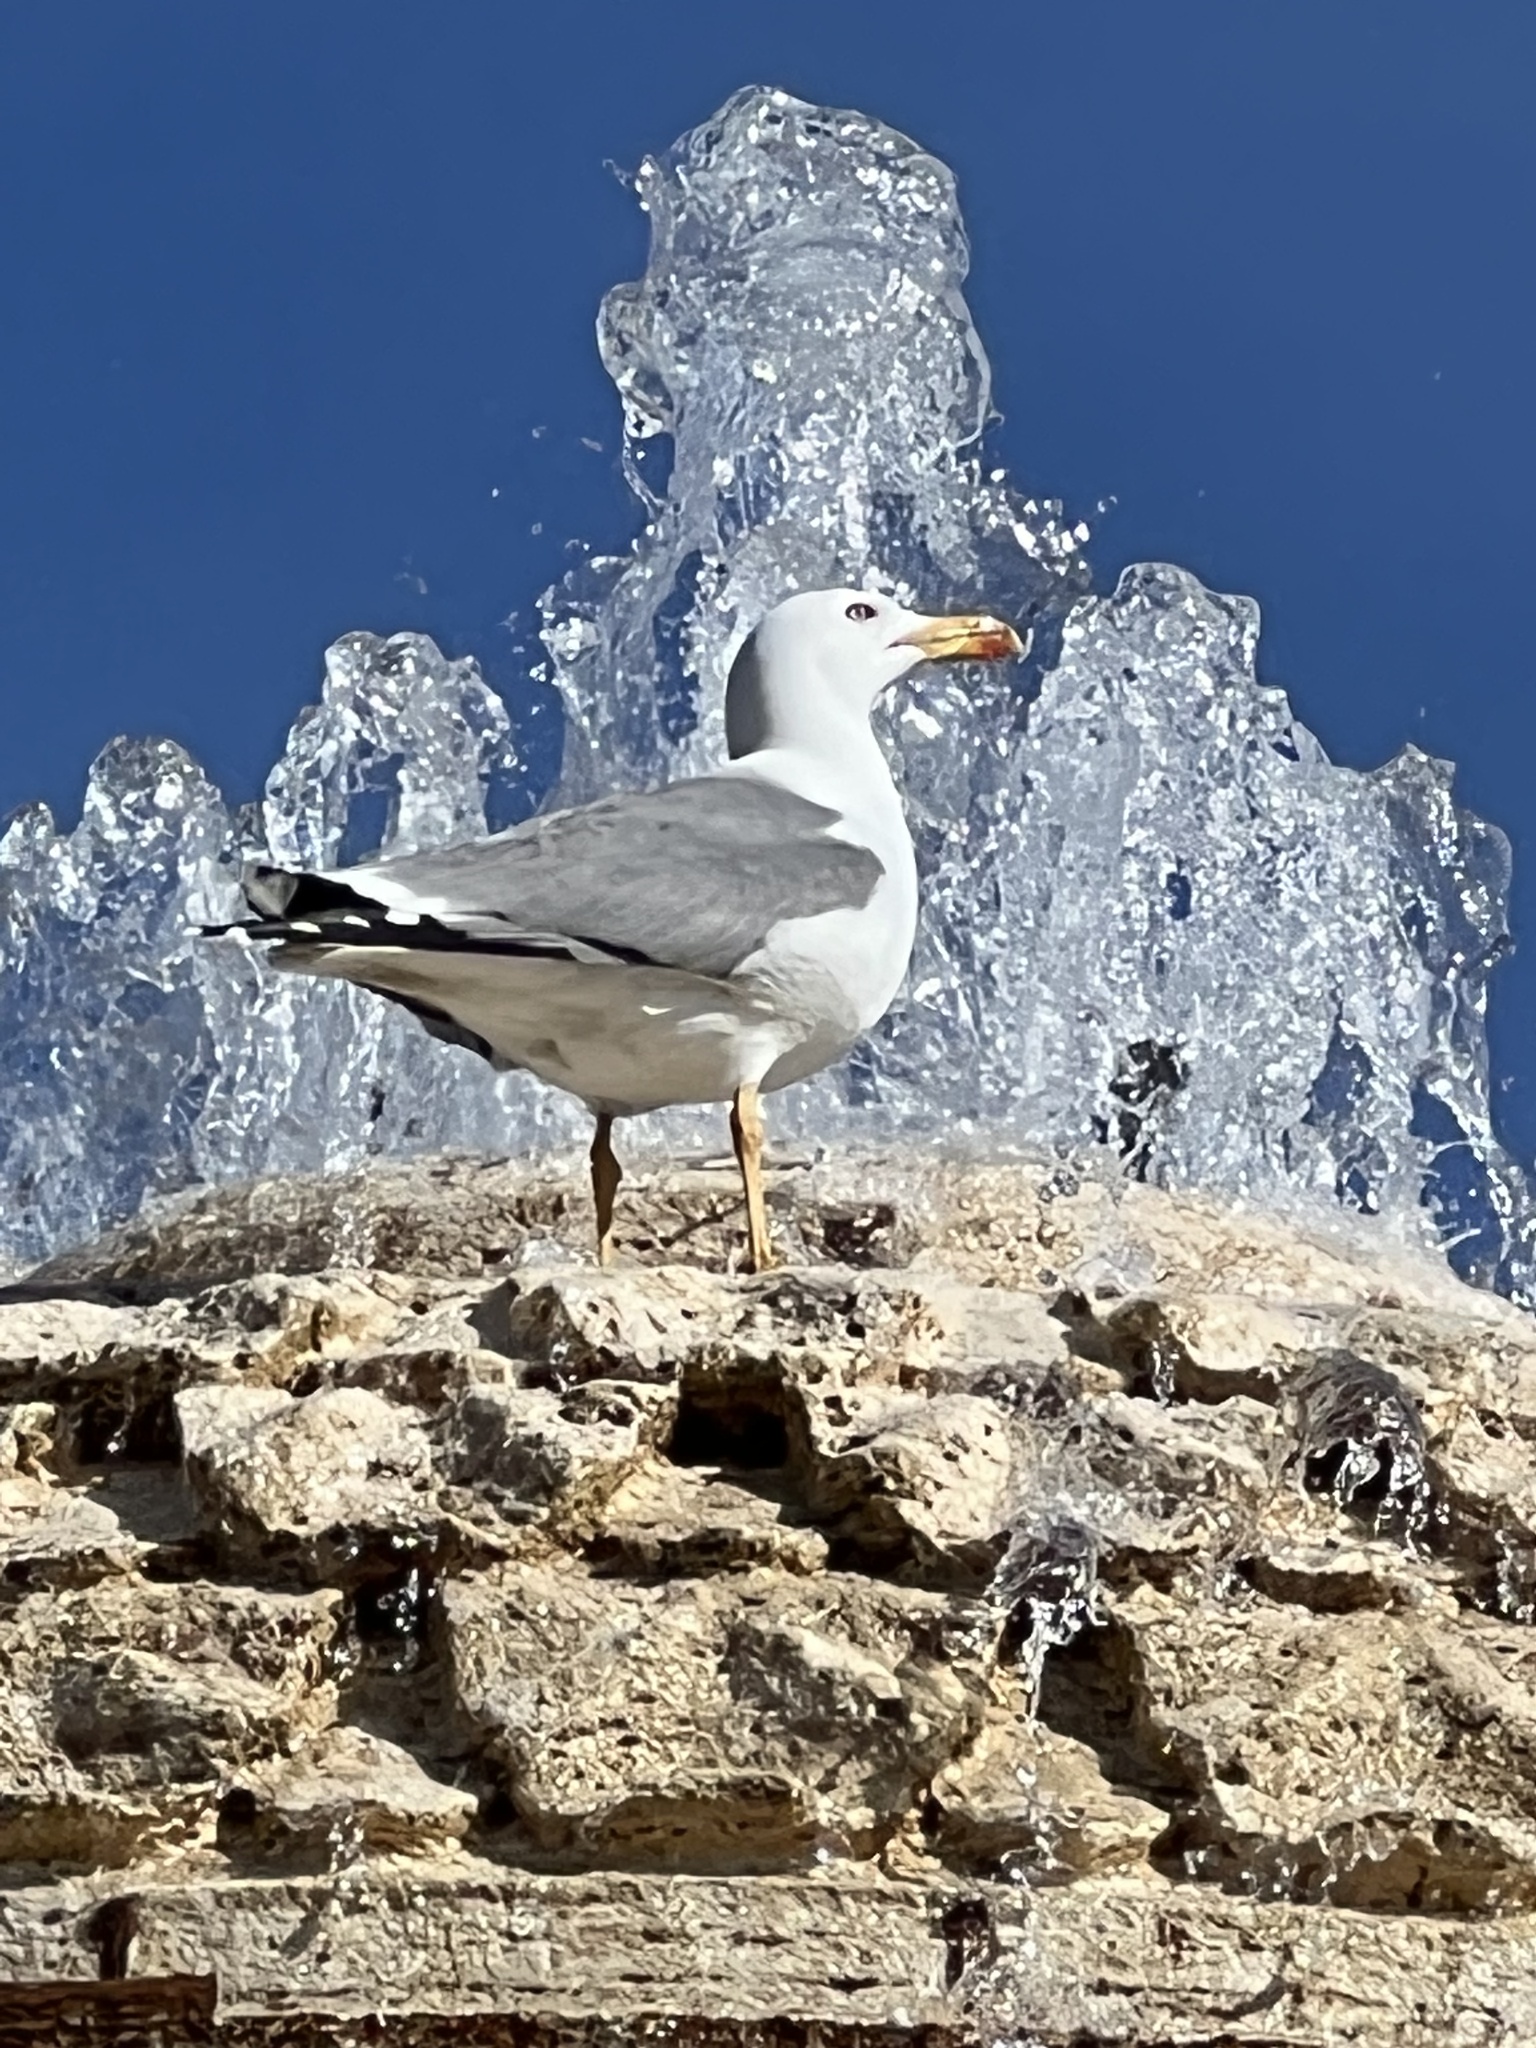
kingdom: Animalia
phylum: Chordata
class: Aves
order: Charadriiformes
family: Laridae
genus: Larus
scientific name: Larus michahellis
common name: Yellow-legged gull
